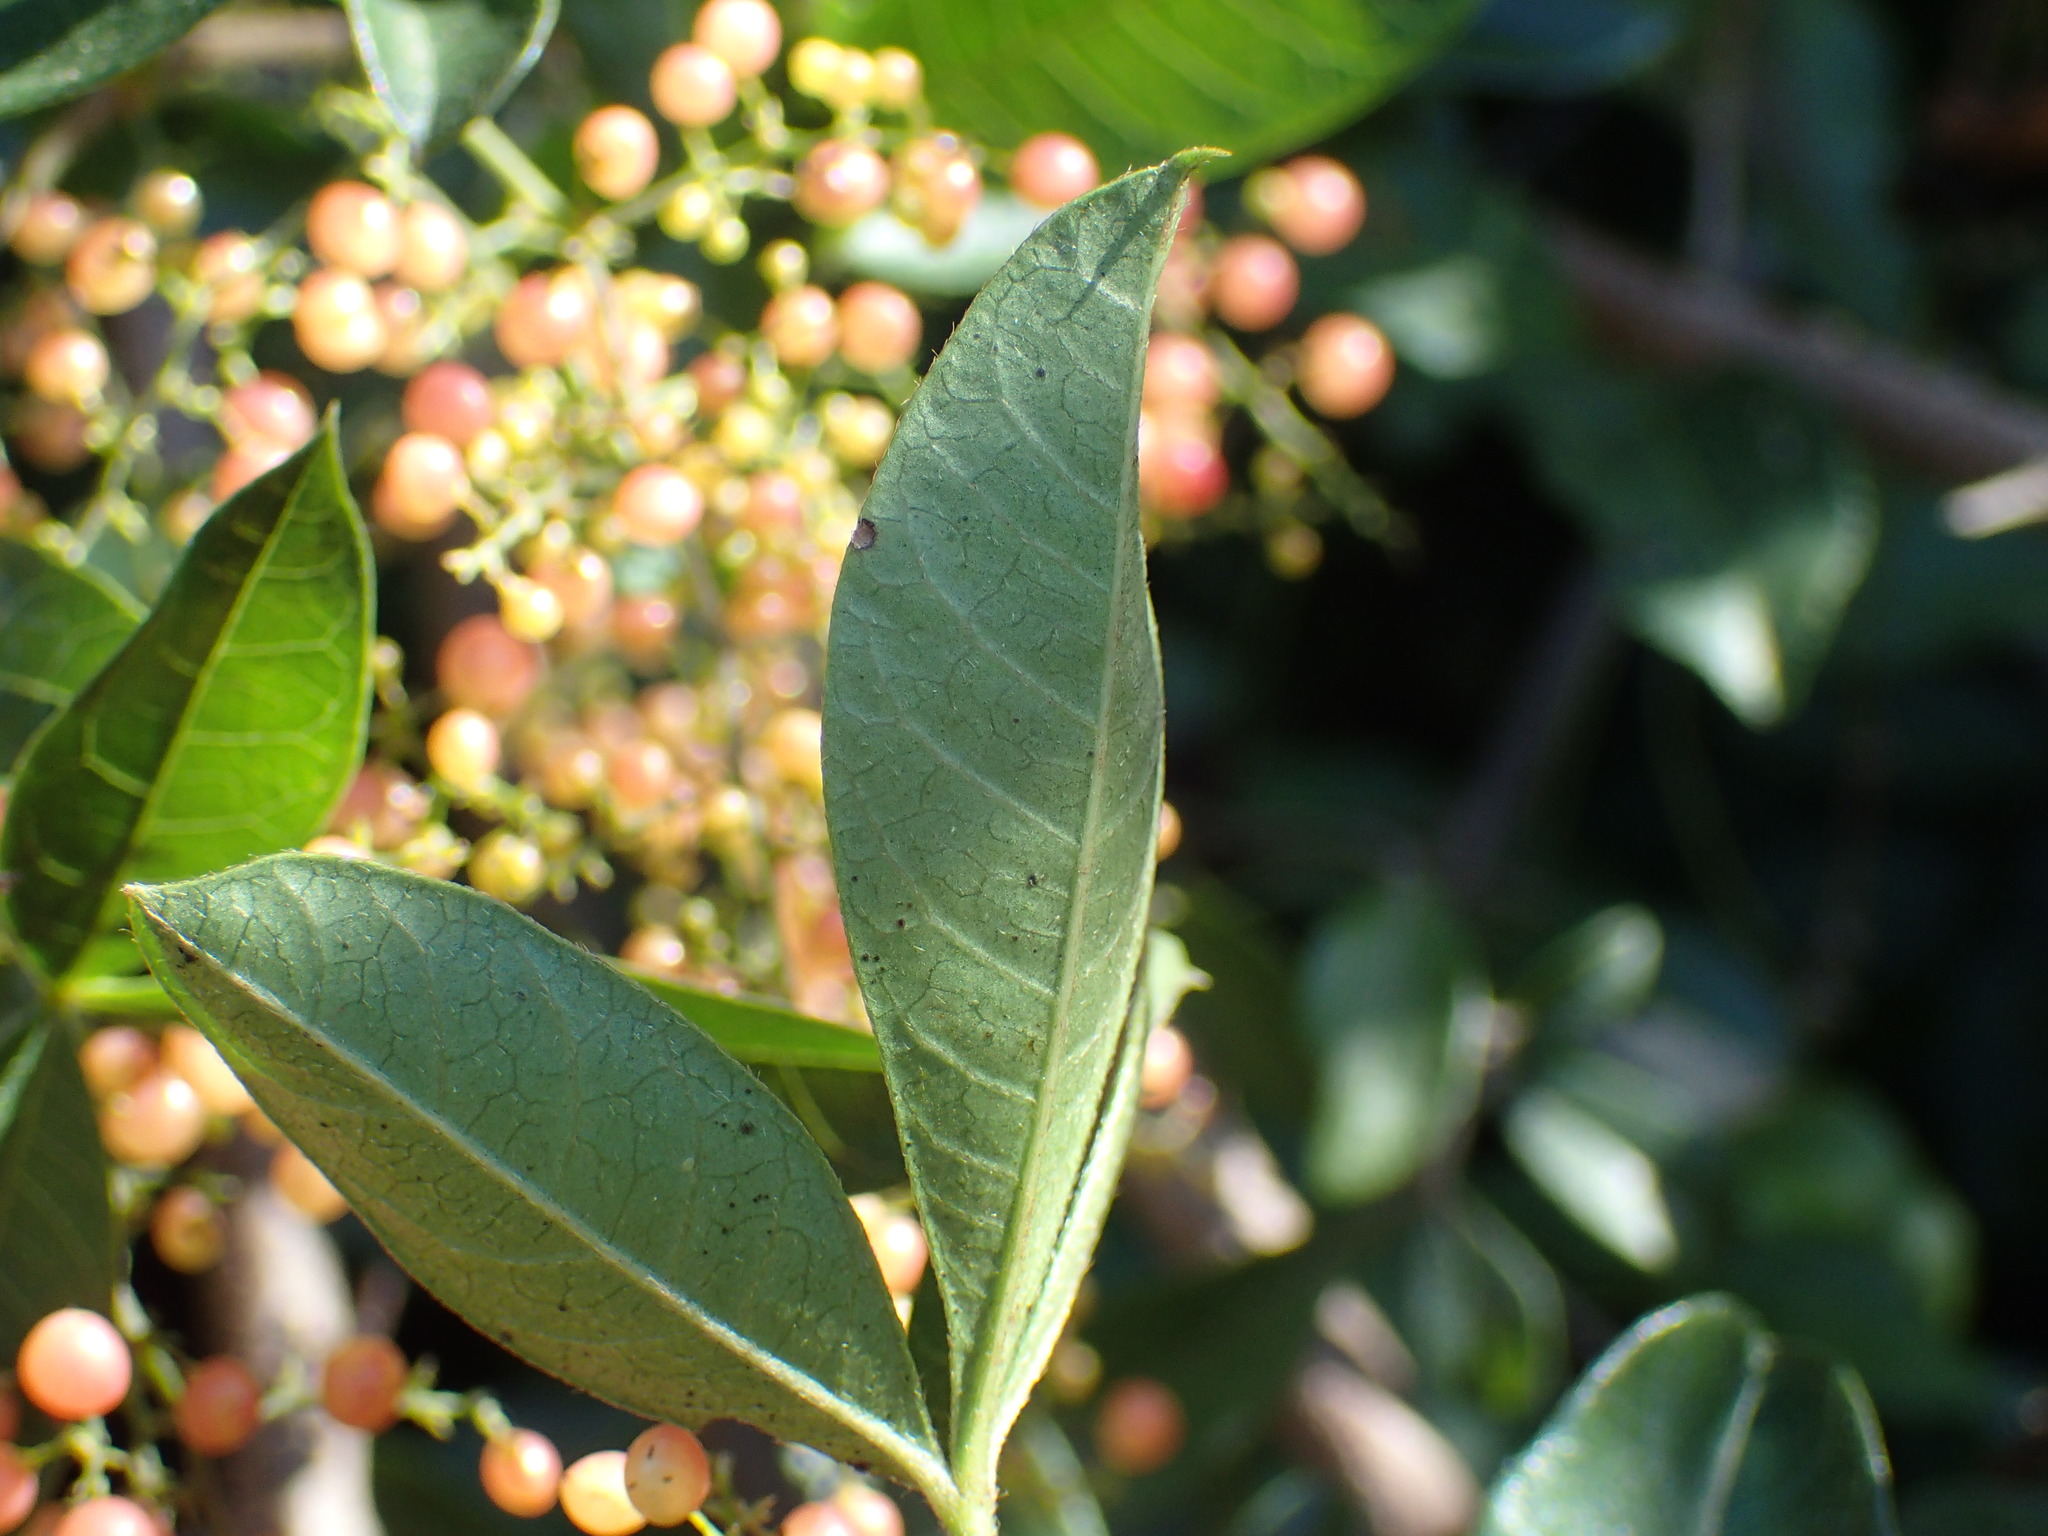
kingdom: Plantae
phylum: Tracheophyta
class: Magnoliopsida
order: Sapindales
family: Anacardiaceae
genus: Searsia
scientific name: Searsia pyroides
